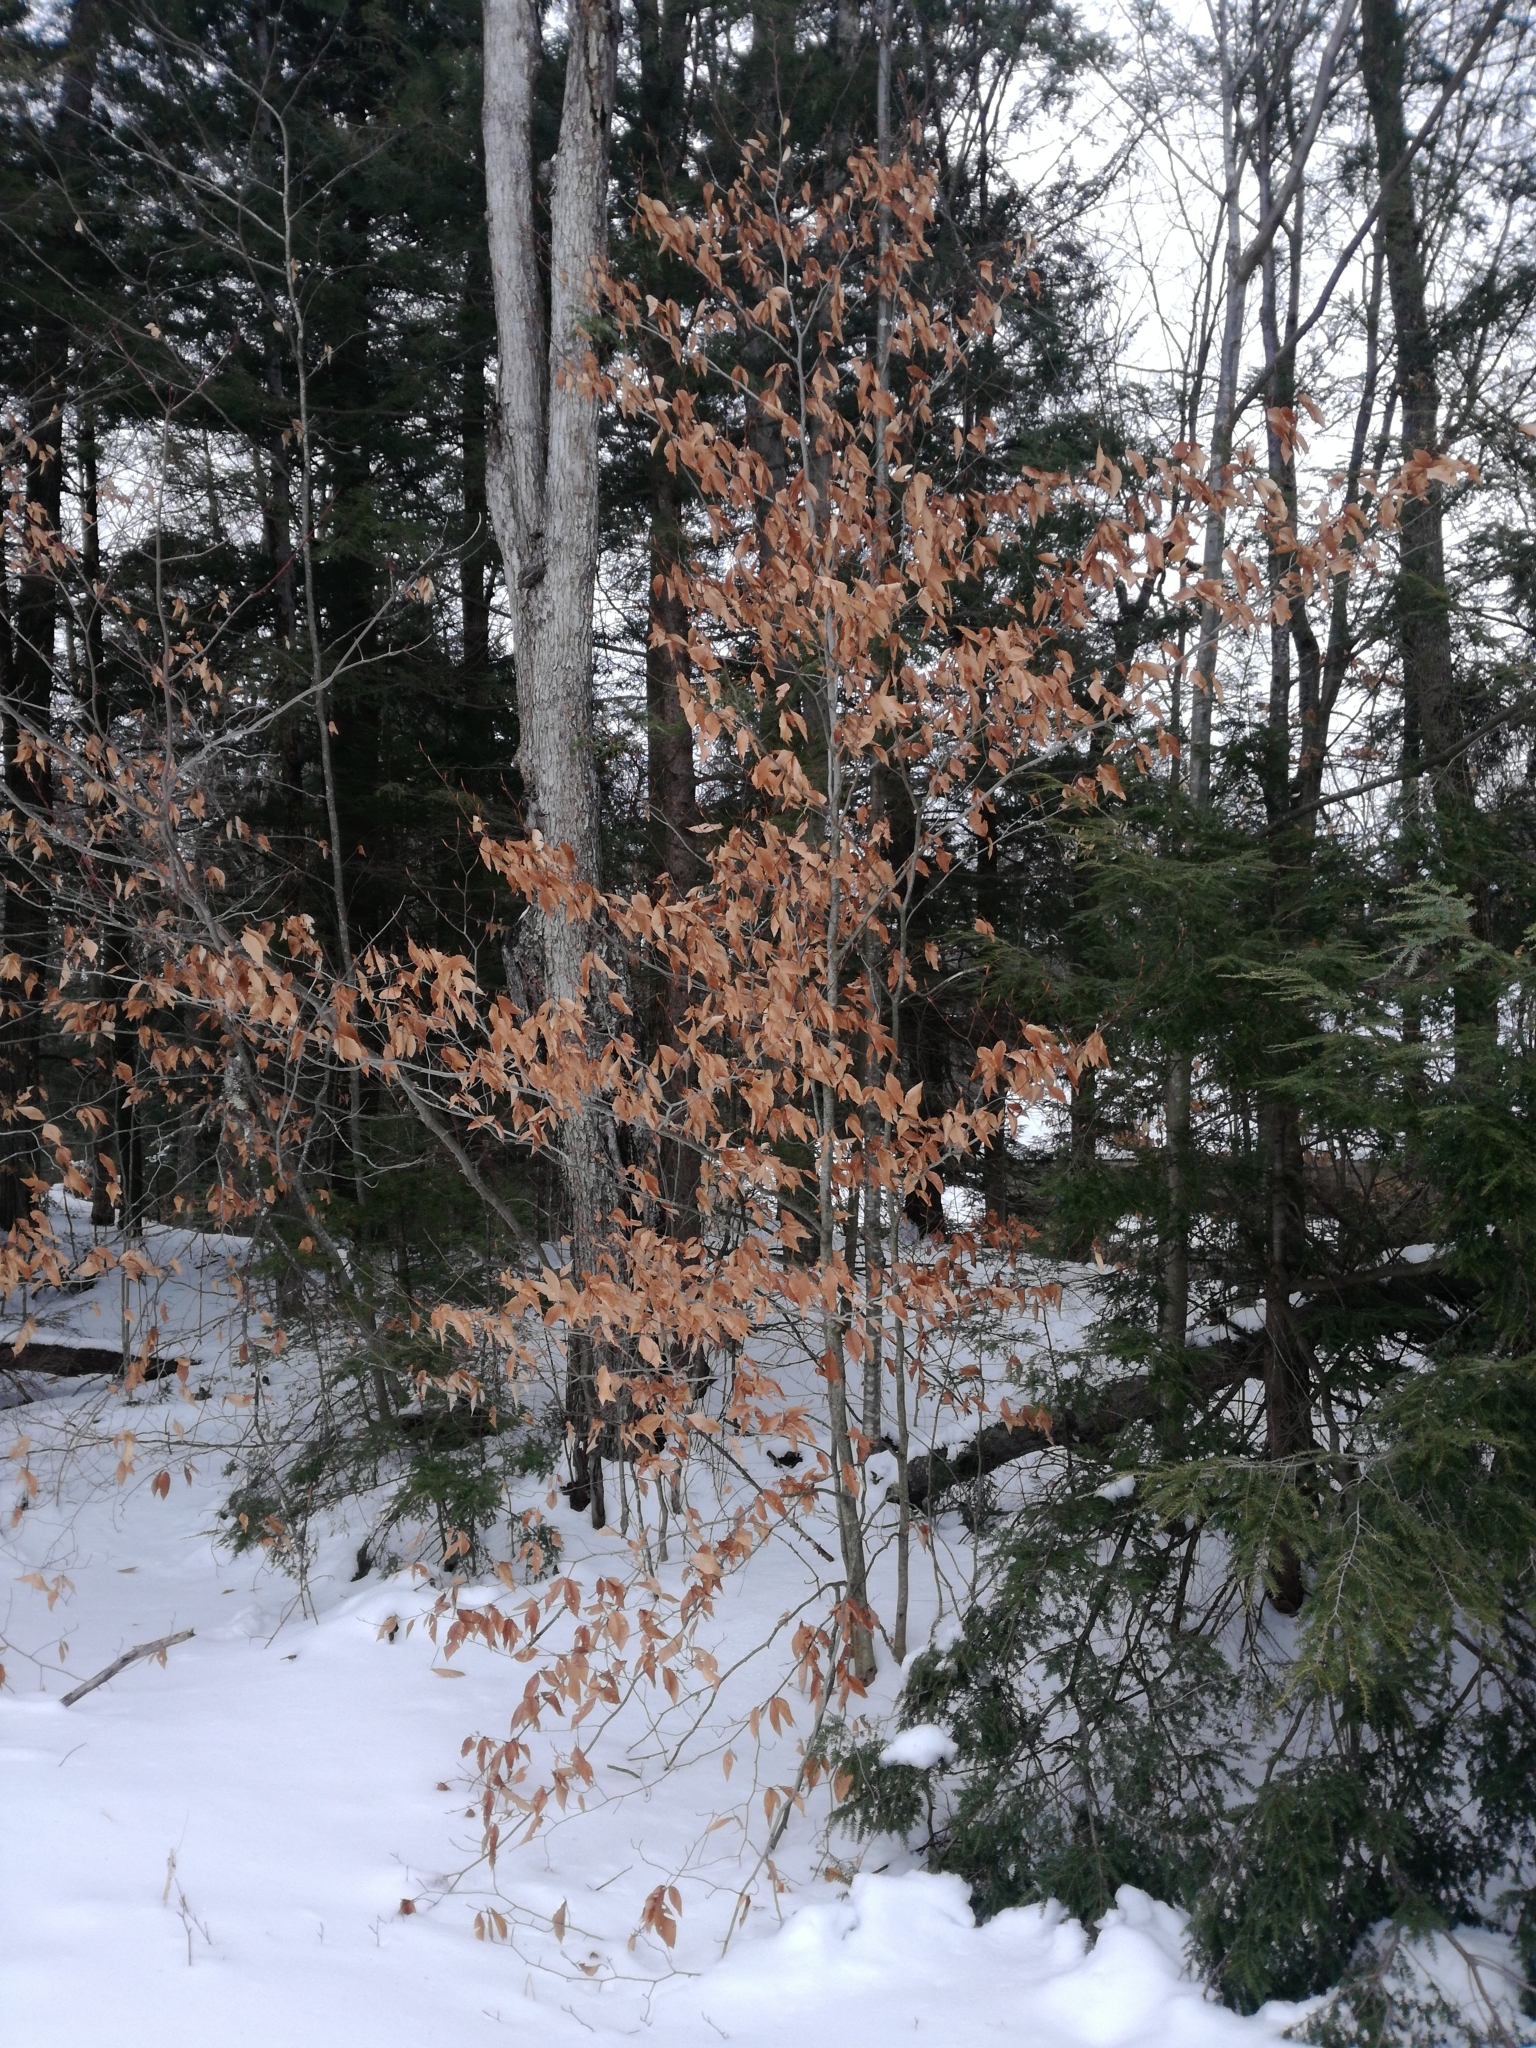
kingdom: Plantae
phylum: Tracheophyta
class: Magnoliopsida
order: Fagales
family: Fagaceae
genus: Fagus
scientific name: Fagus grandifolia
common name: American beech
